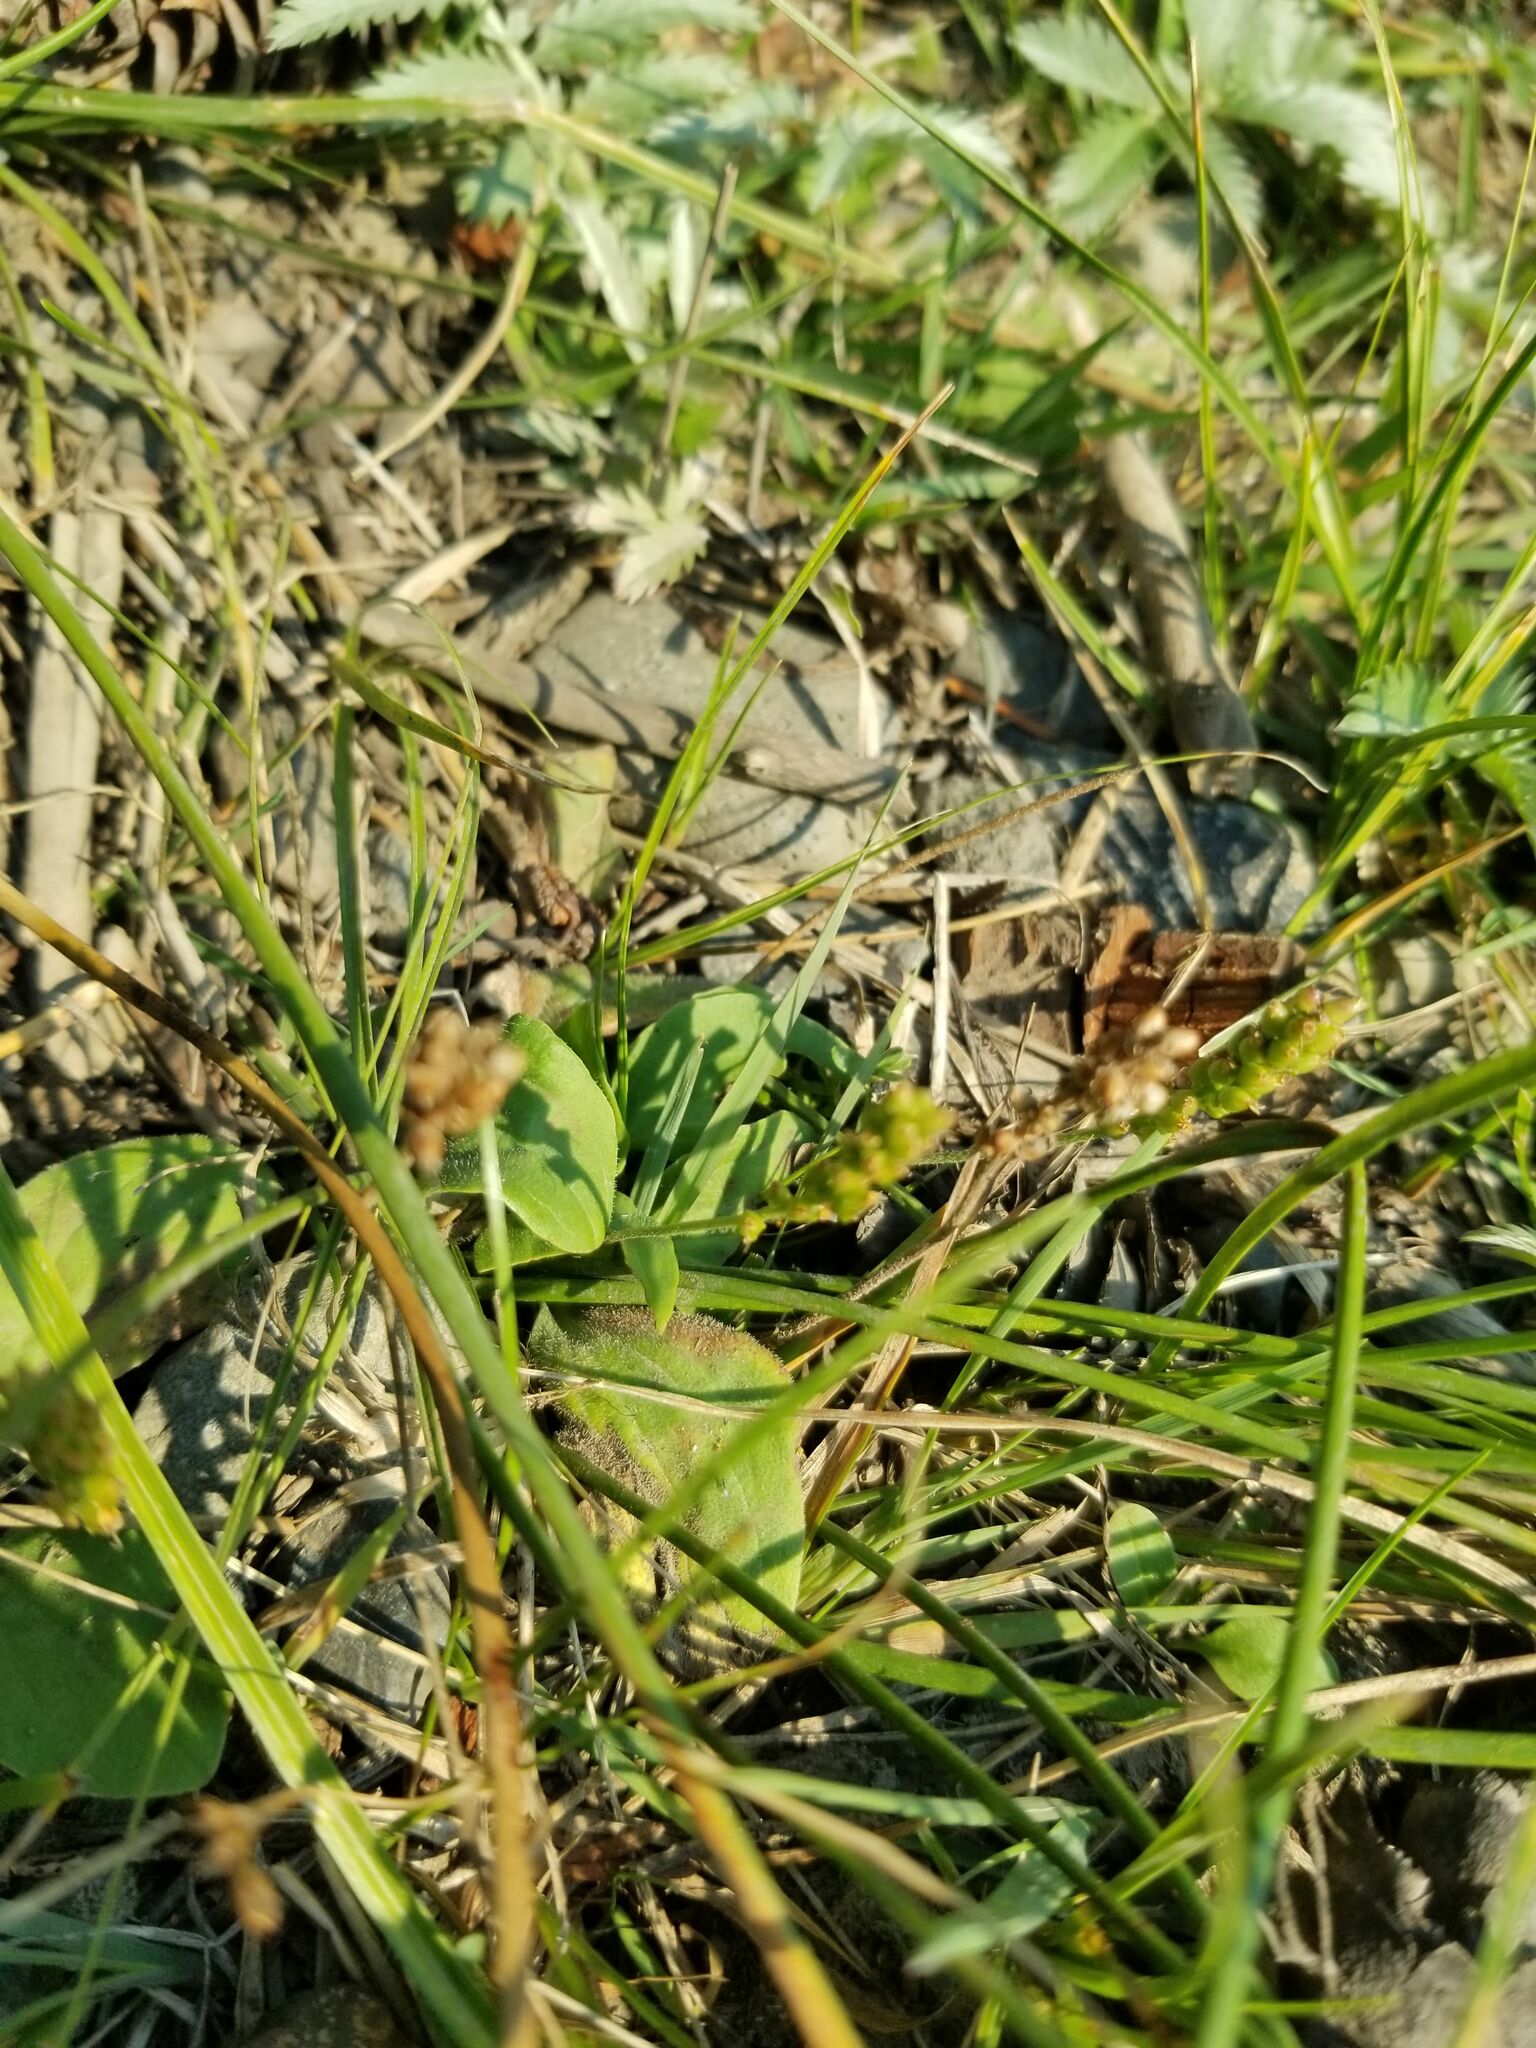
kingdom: Plantae
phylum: Tracheophyta
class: Magnoliopsida
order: Lamiales
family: Plantaginaceae
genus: Plantago
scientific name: Plantago major
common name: Common plantain
